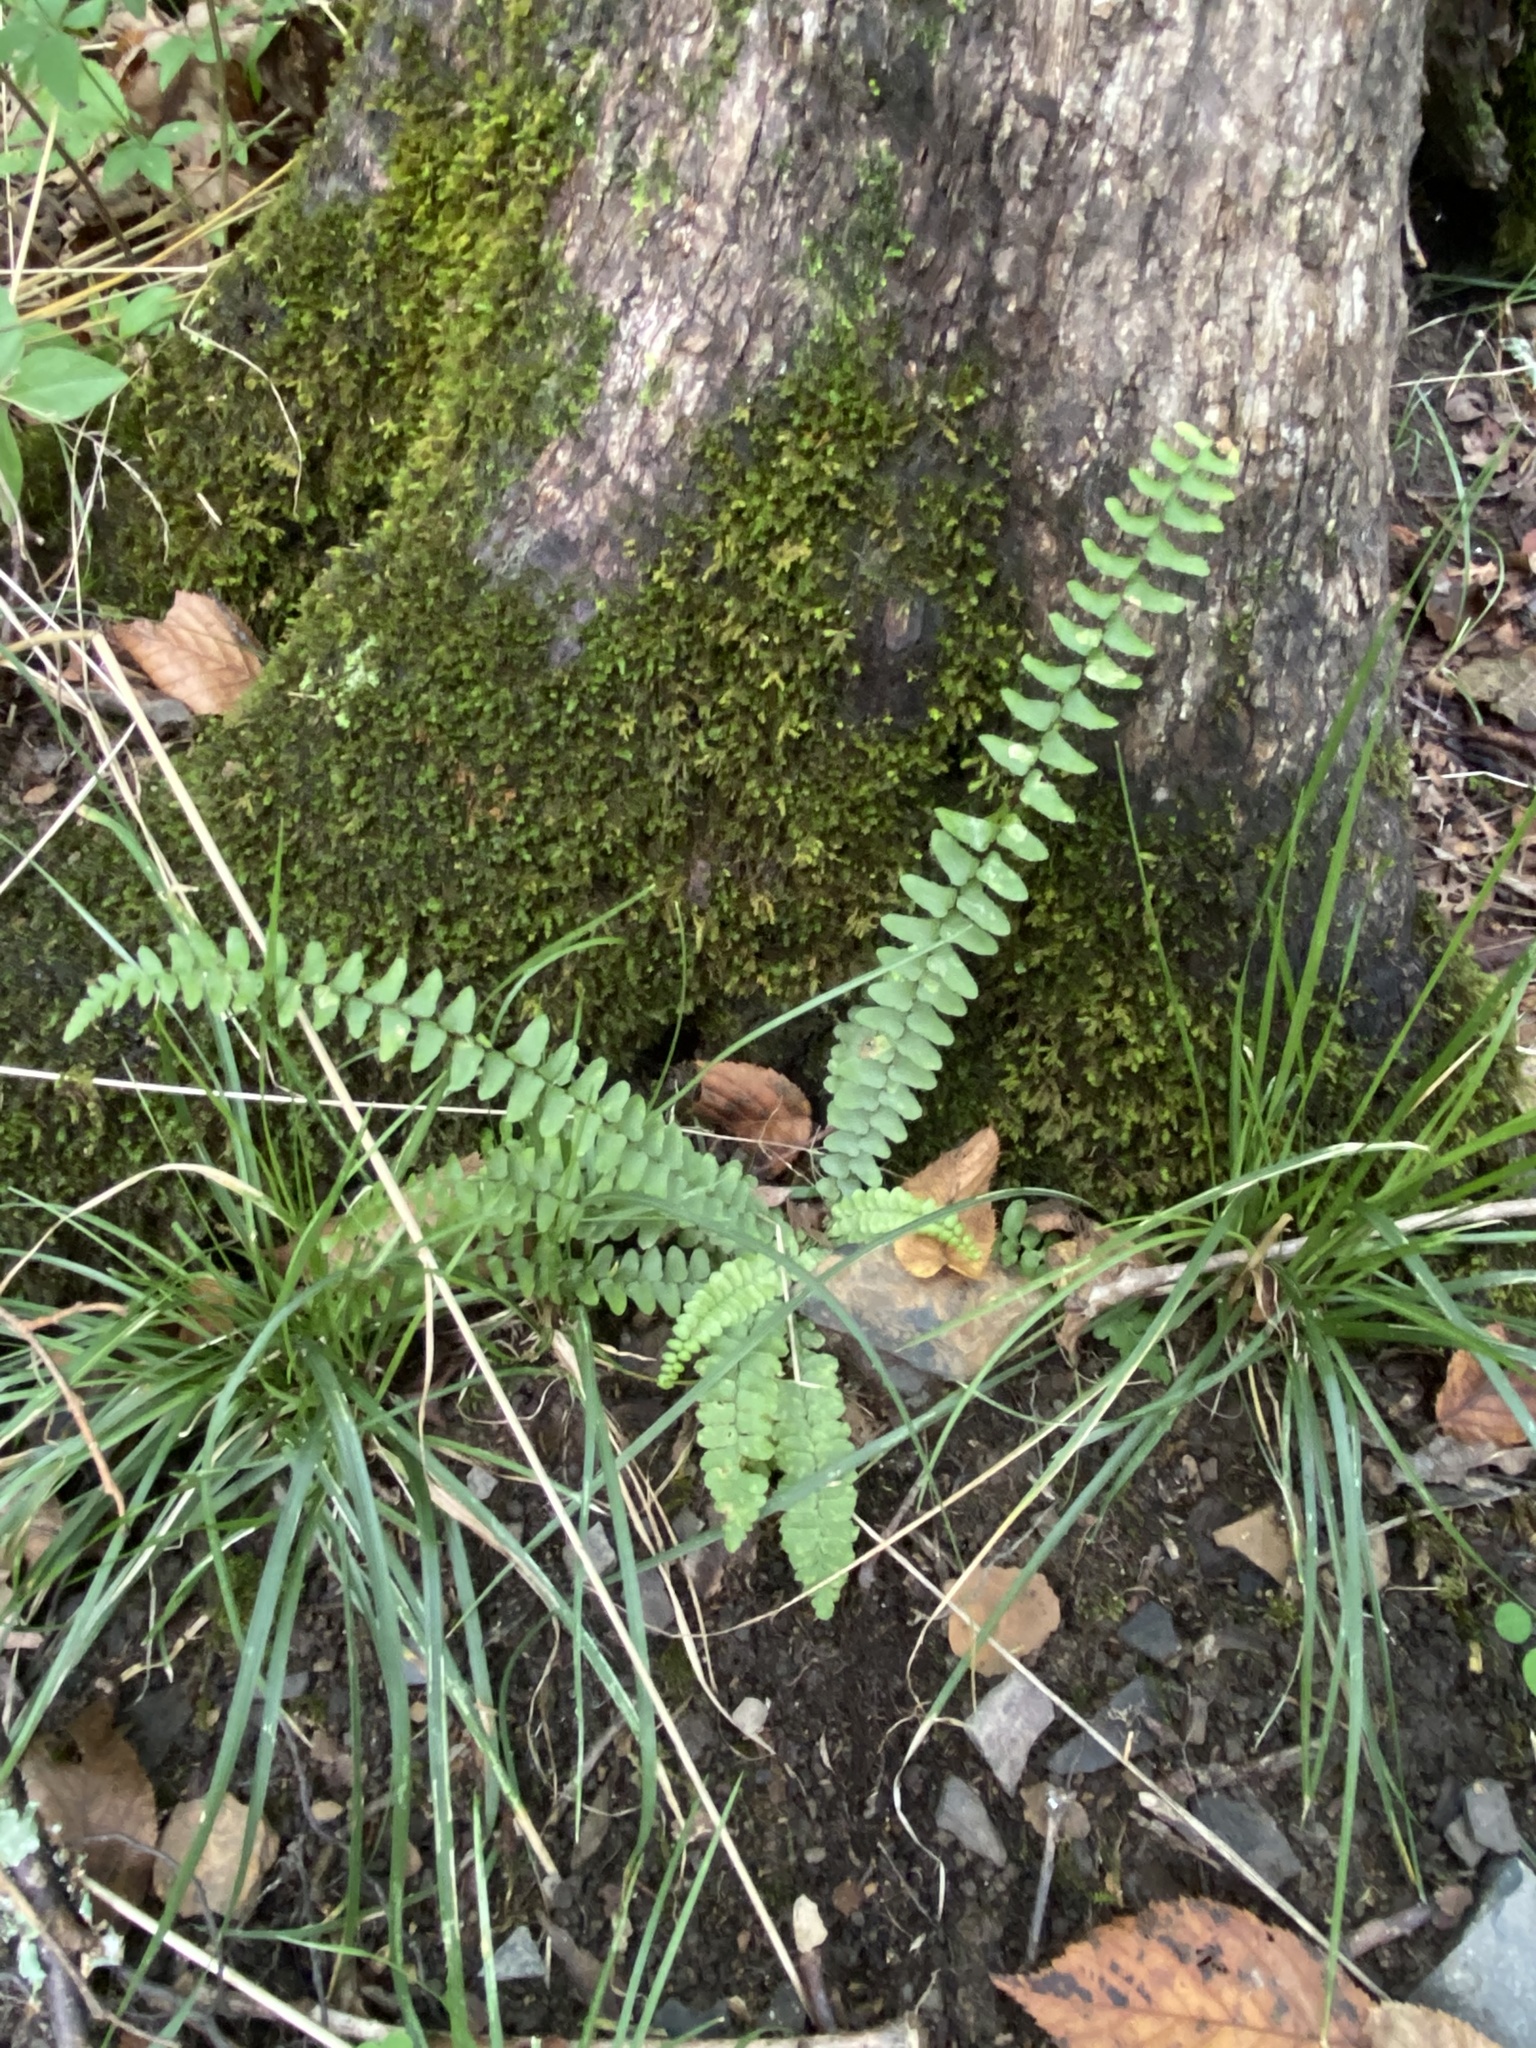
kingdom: Plantae
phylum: Tracheophyta
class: Polypodiopsida
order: Polypodiales
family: Aspleniaceae
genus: Asplenium
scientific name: Asplenium platyneuron
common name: Ebony spleenwort
